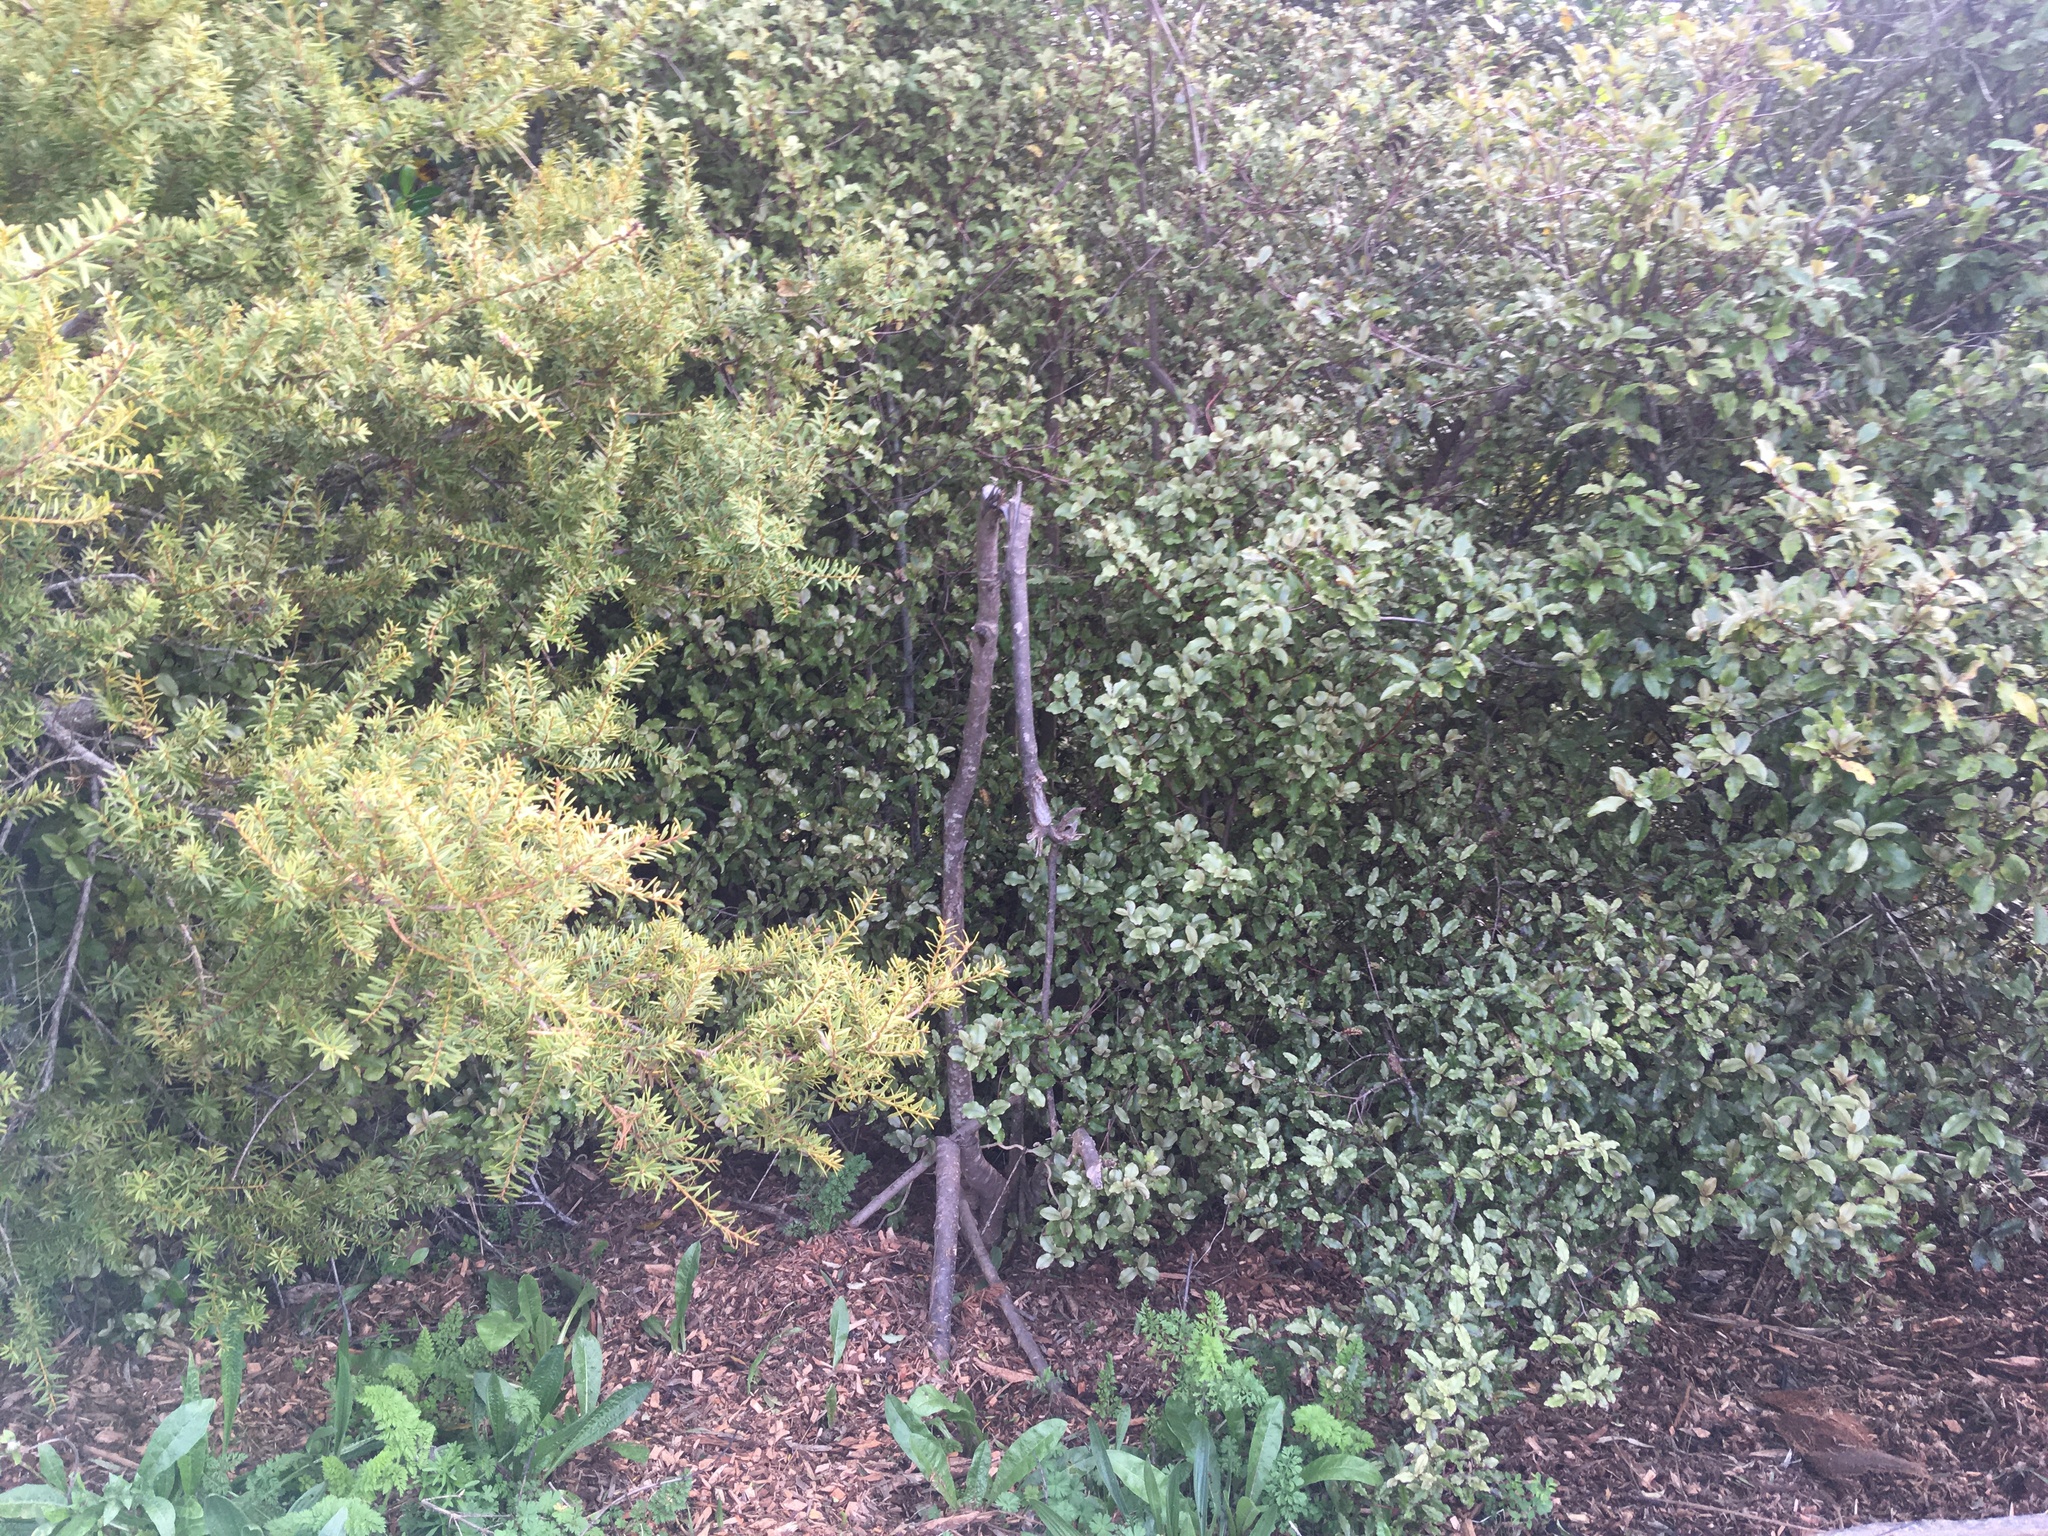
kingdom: Plantae
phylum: Tracheophyta
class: Magnoliopsida
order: Lamiales
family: Oleaceae
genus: Ligustrum
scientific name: Ligustrum lucidum
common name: Glossy privet
